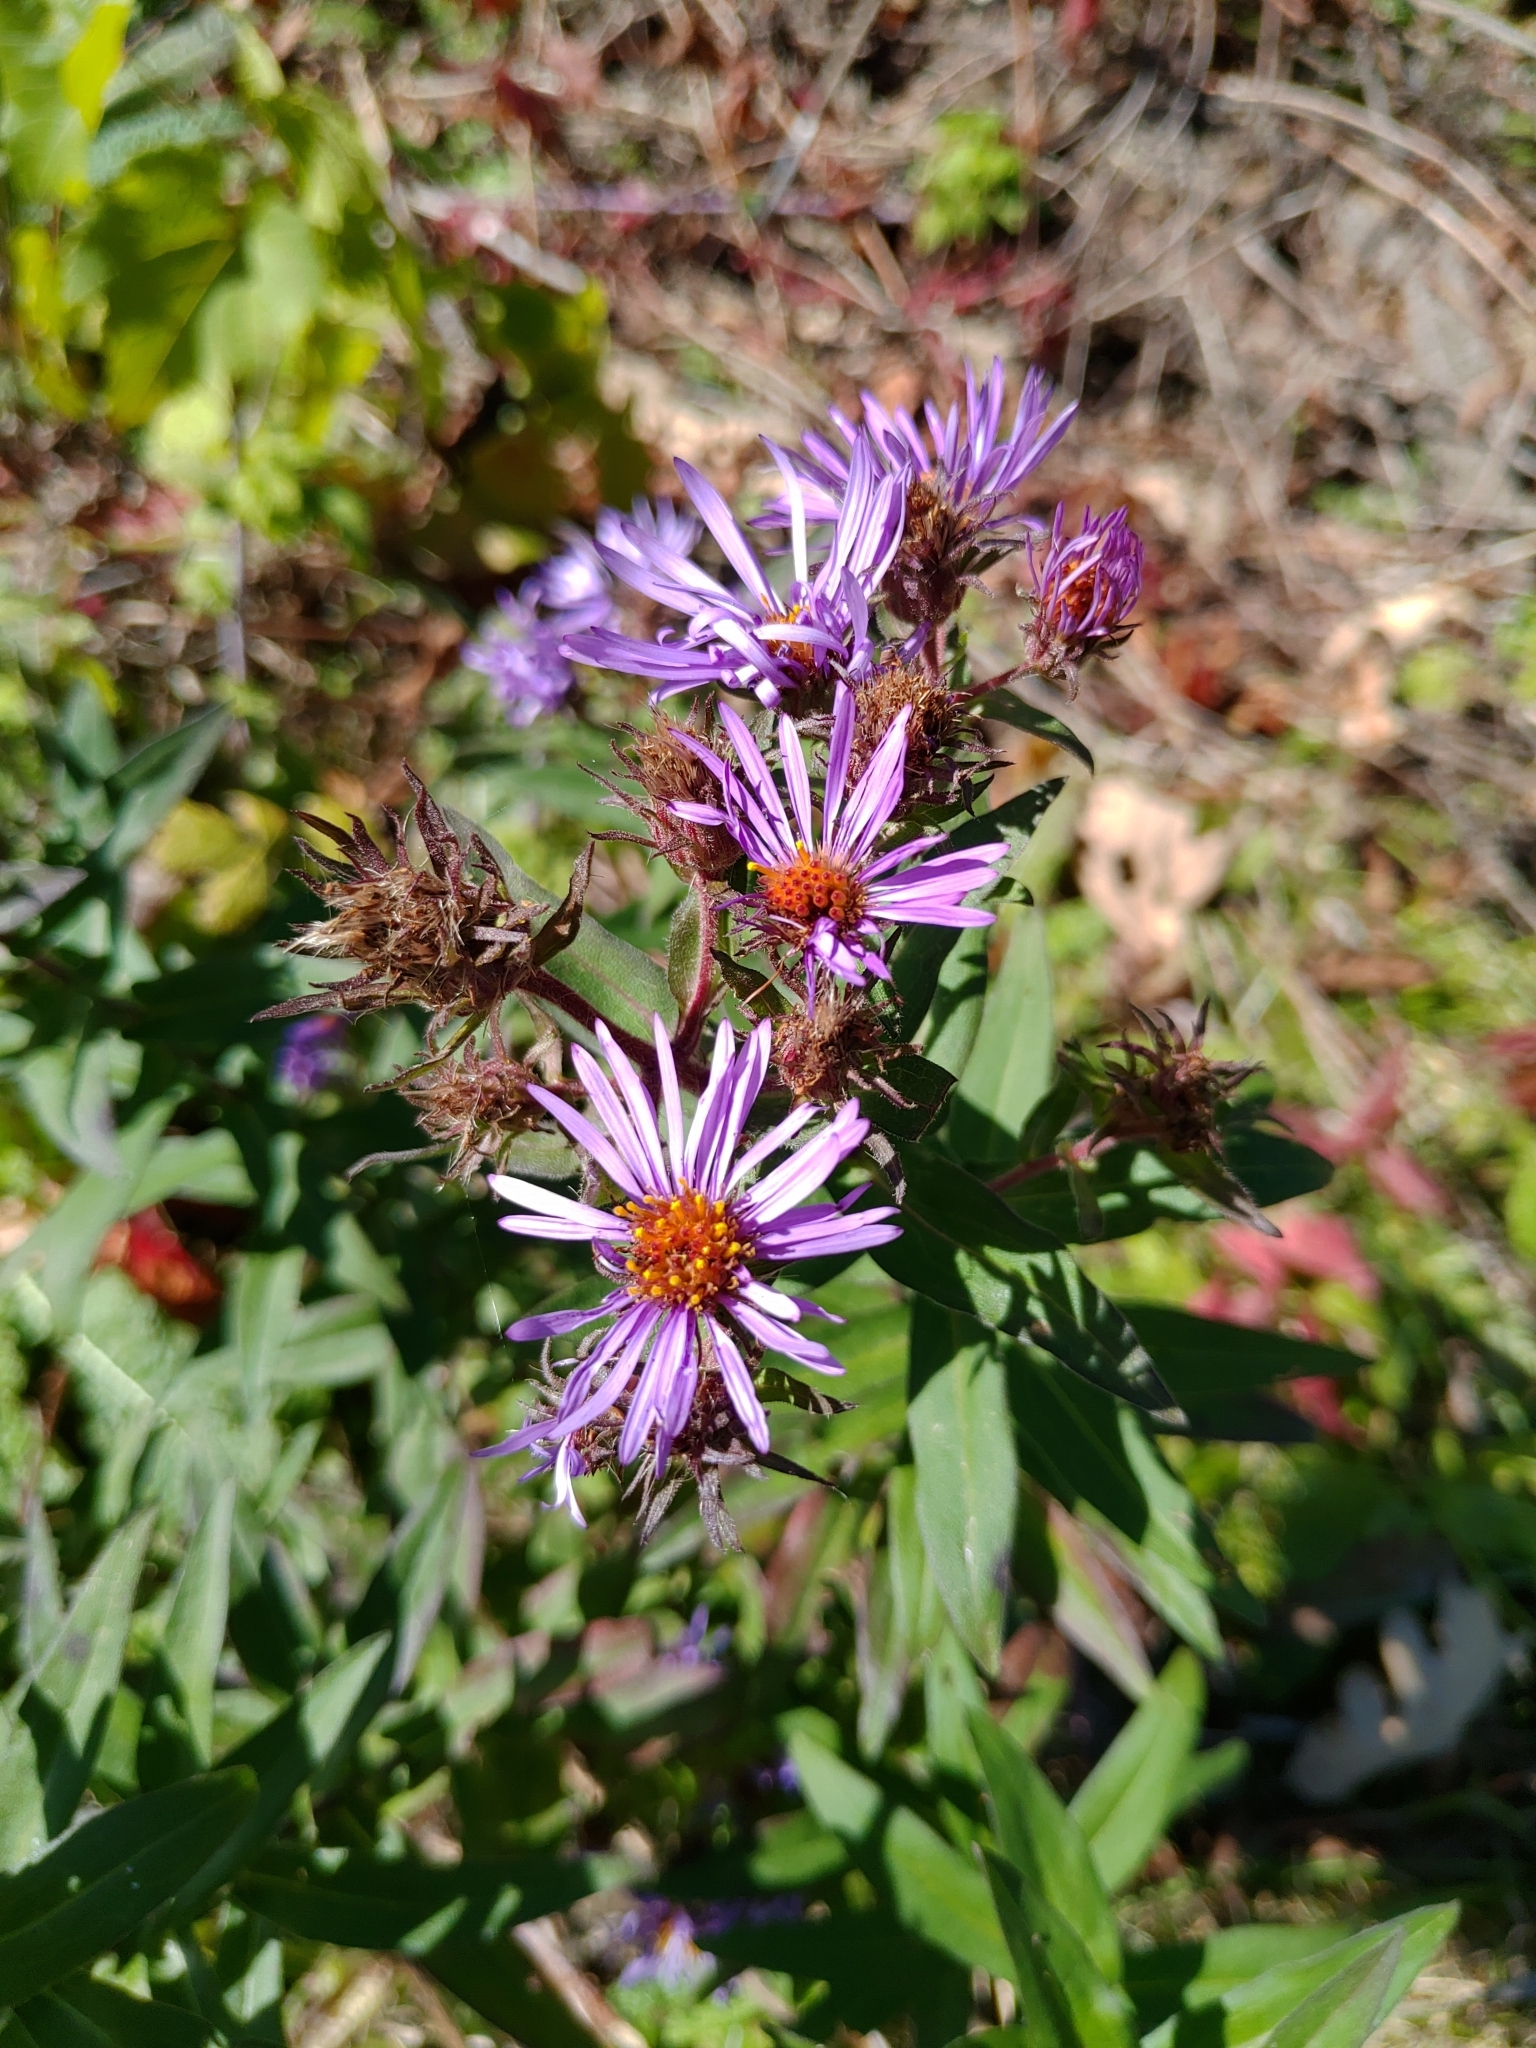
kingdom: Plantae
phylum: Tracheophyta
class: Magnoliopsida
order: Asterales
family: Asteraceae
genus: Symphyotrichum
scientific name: Symphyotrichum novae-angliae
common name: Michaelmas daisy
